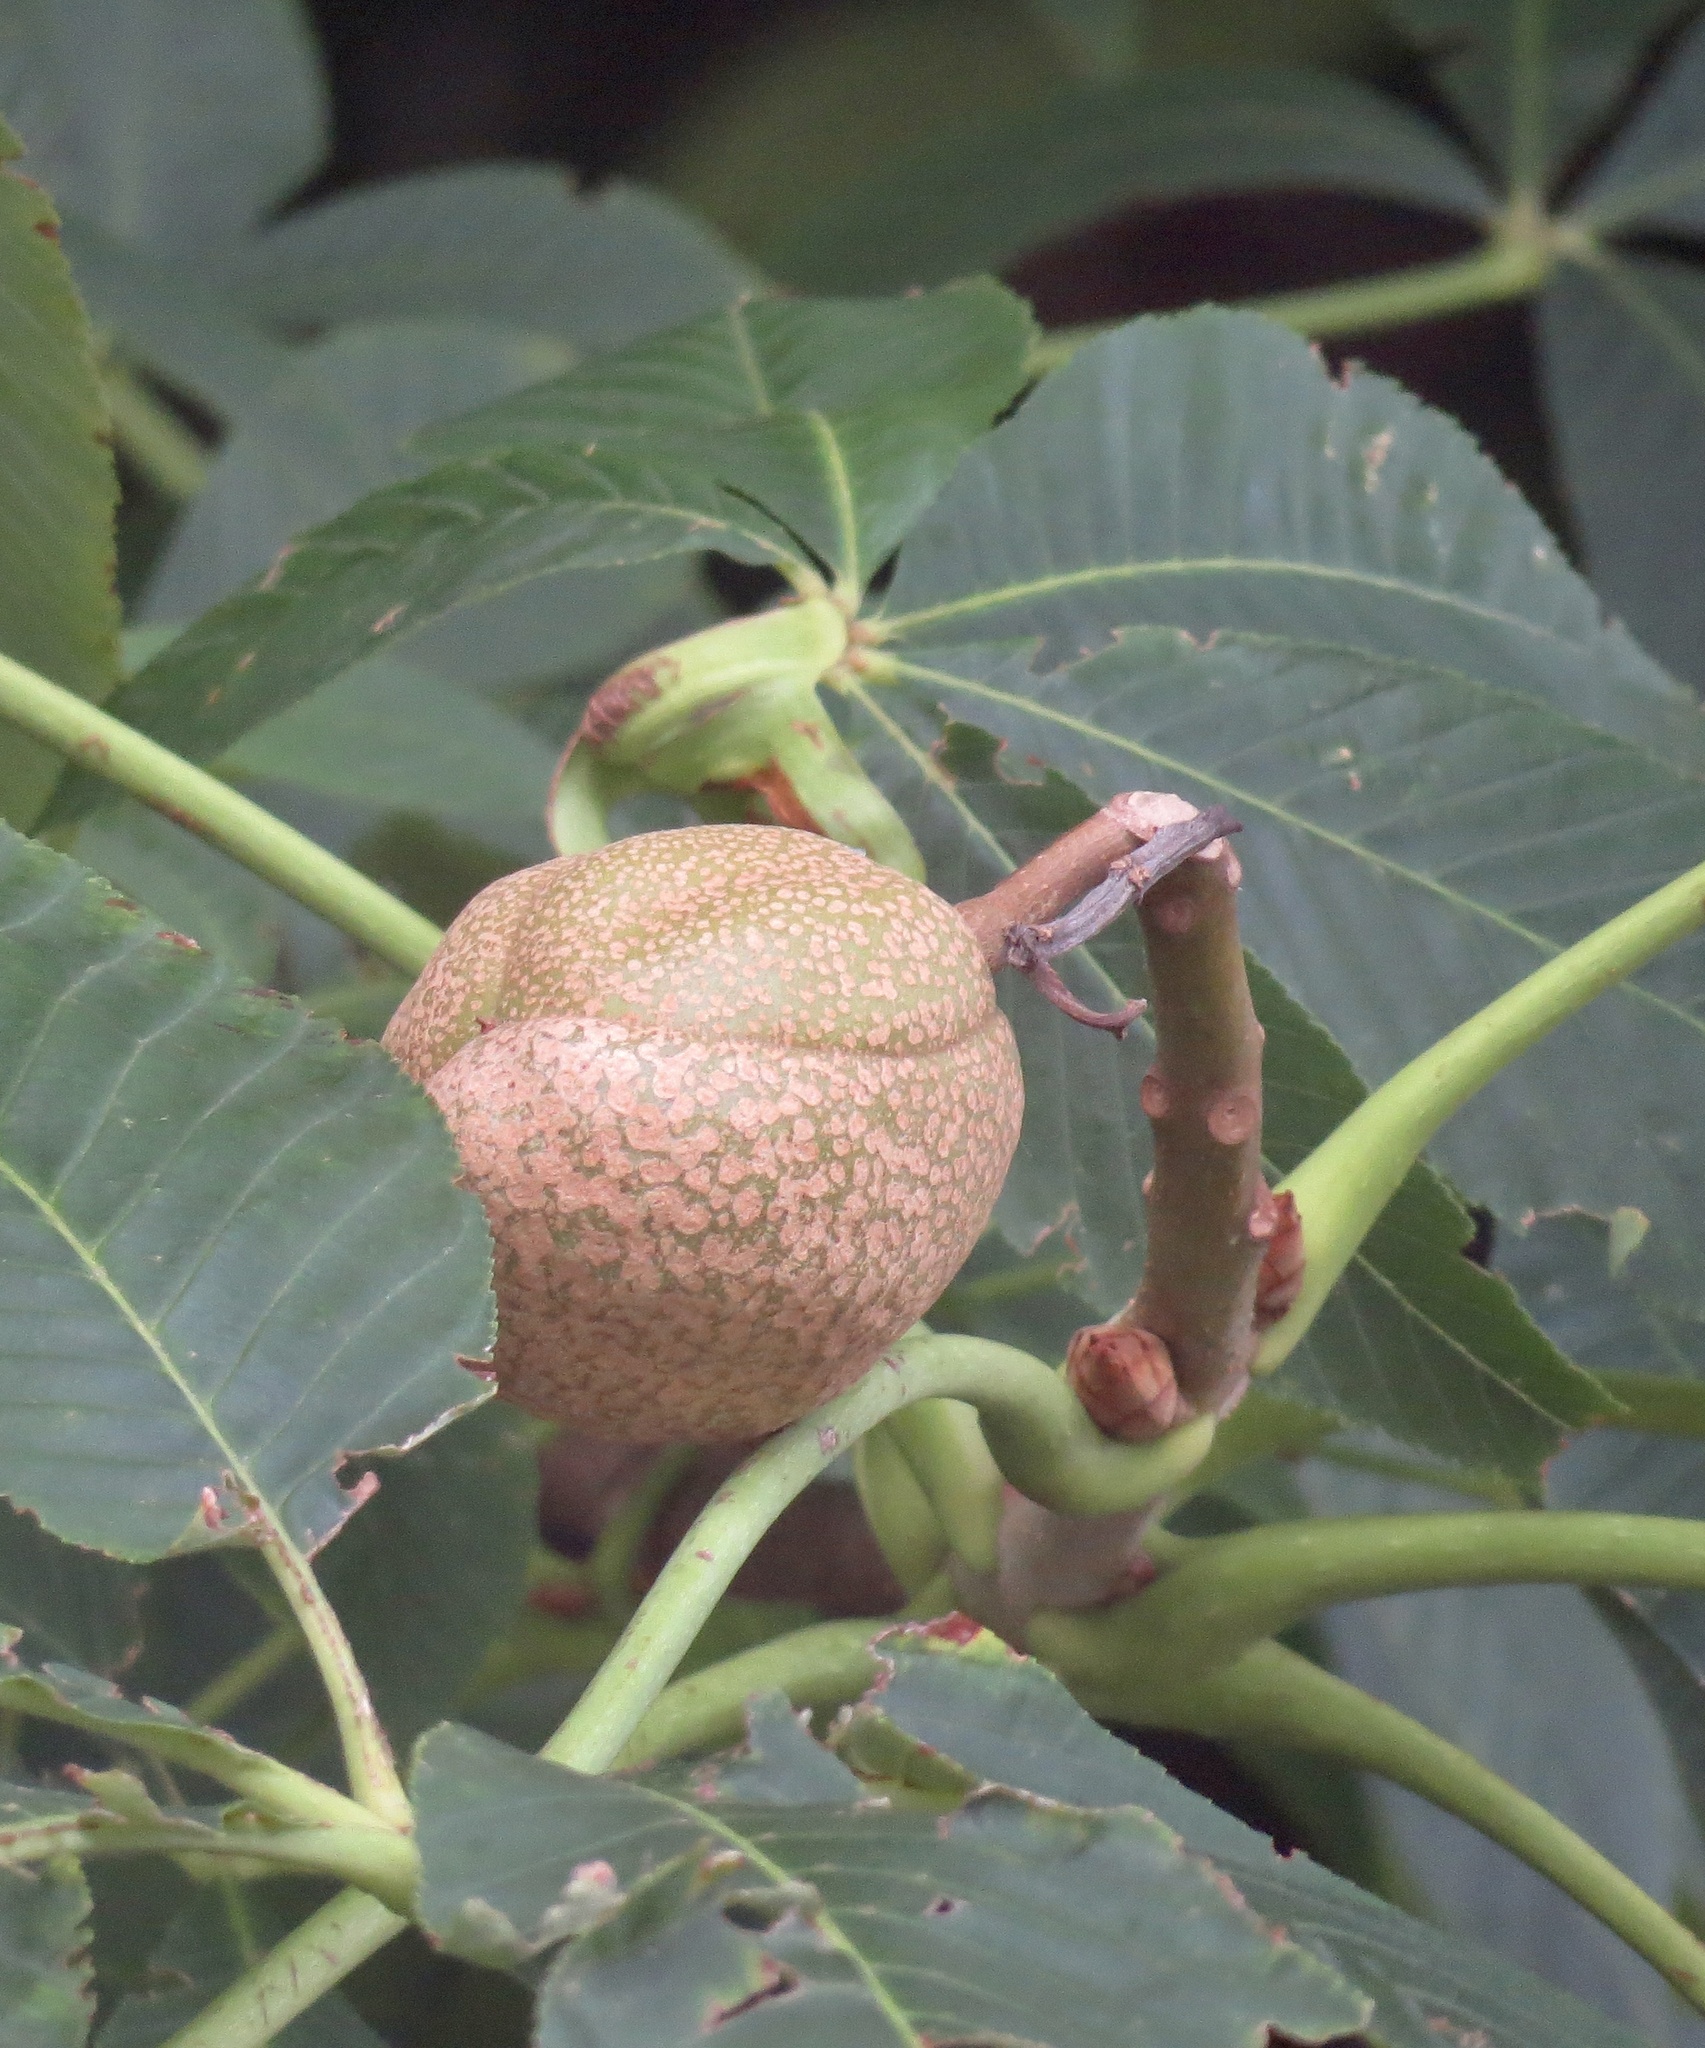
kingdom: Plantae
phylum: Tracheophyta
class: Magnoliopsida
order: Sapindales
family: Sapindaceae
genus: Aesculus
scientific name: Aesculus flava
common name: Yellow buckeye
